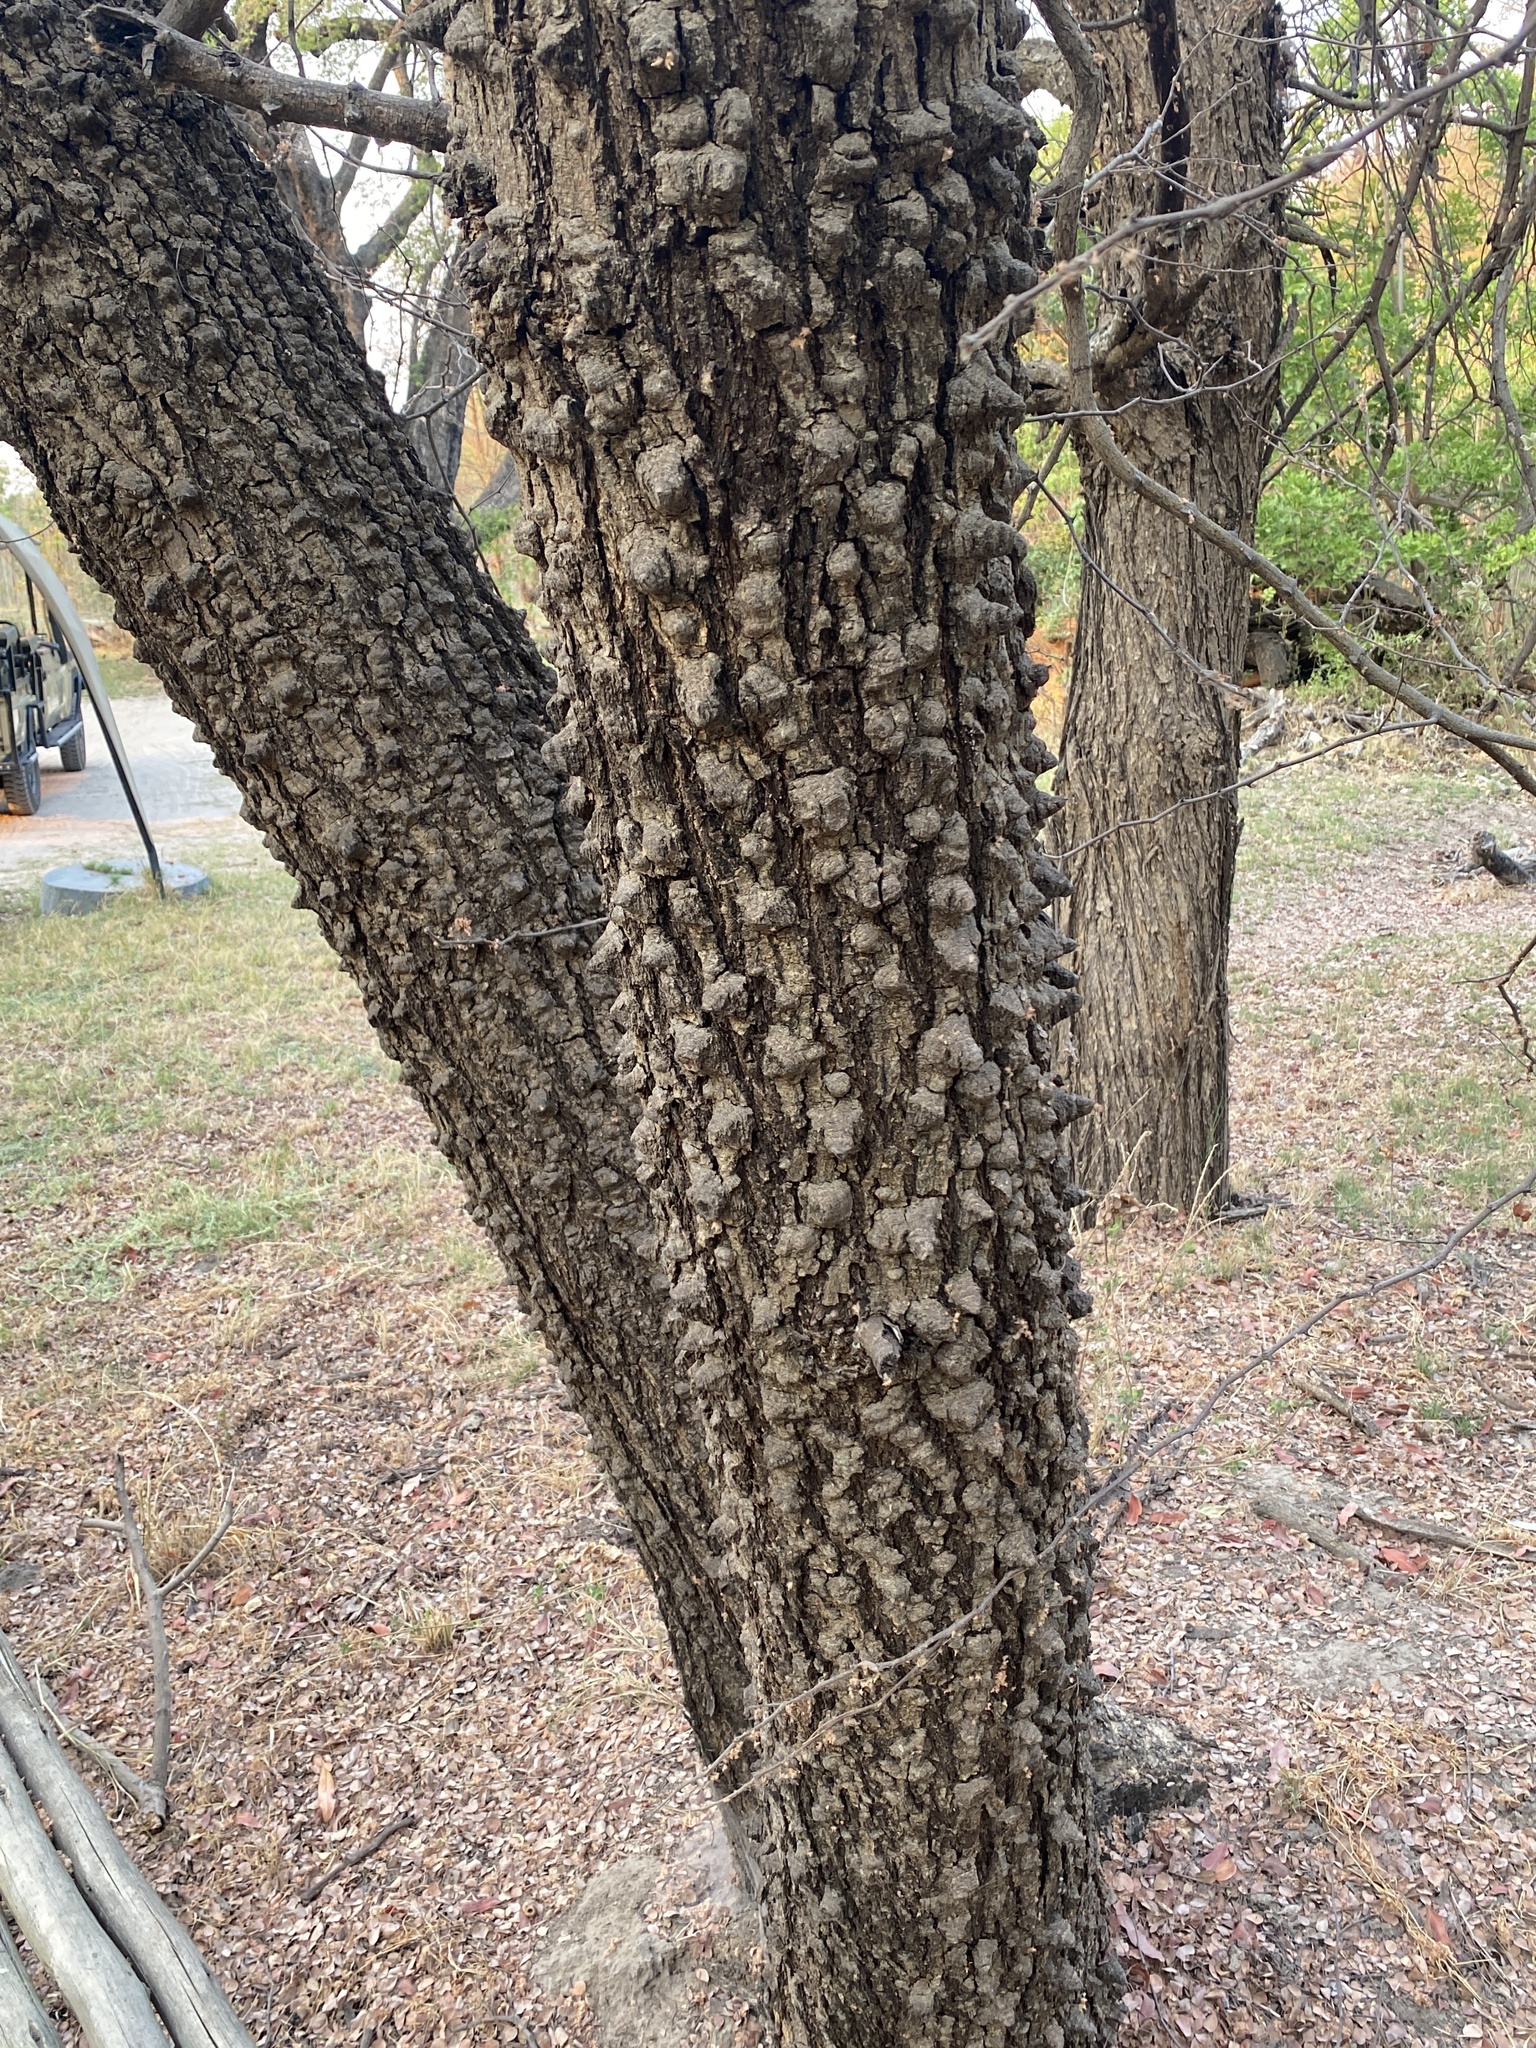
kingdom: Plantae
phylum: Tracheophyta
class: Magnoliopsida
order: Fabales
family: Fabaceae
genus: Senegalia
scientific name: Senegalia nigrescens
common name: Knobthorn
